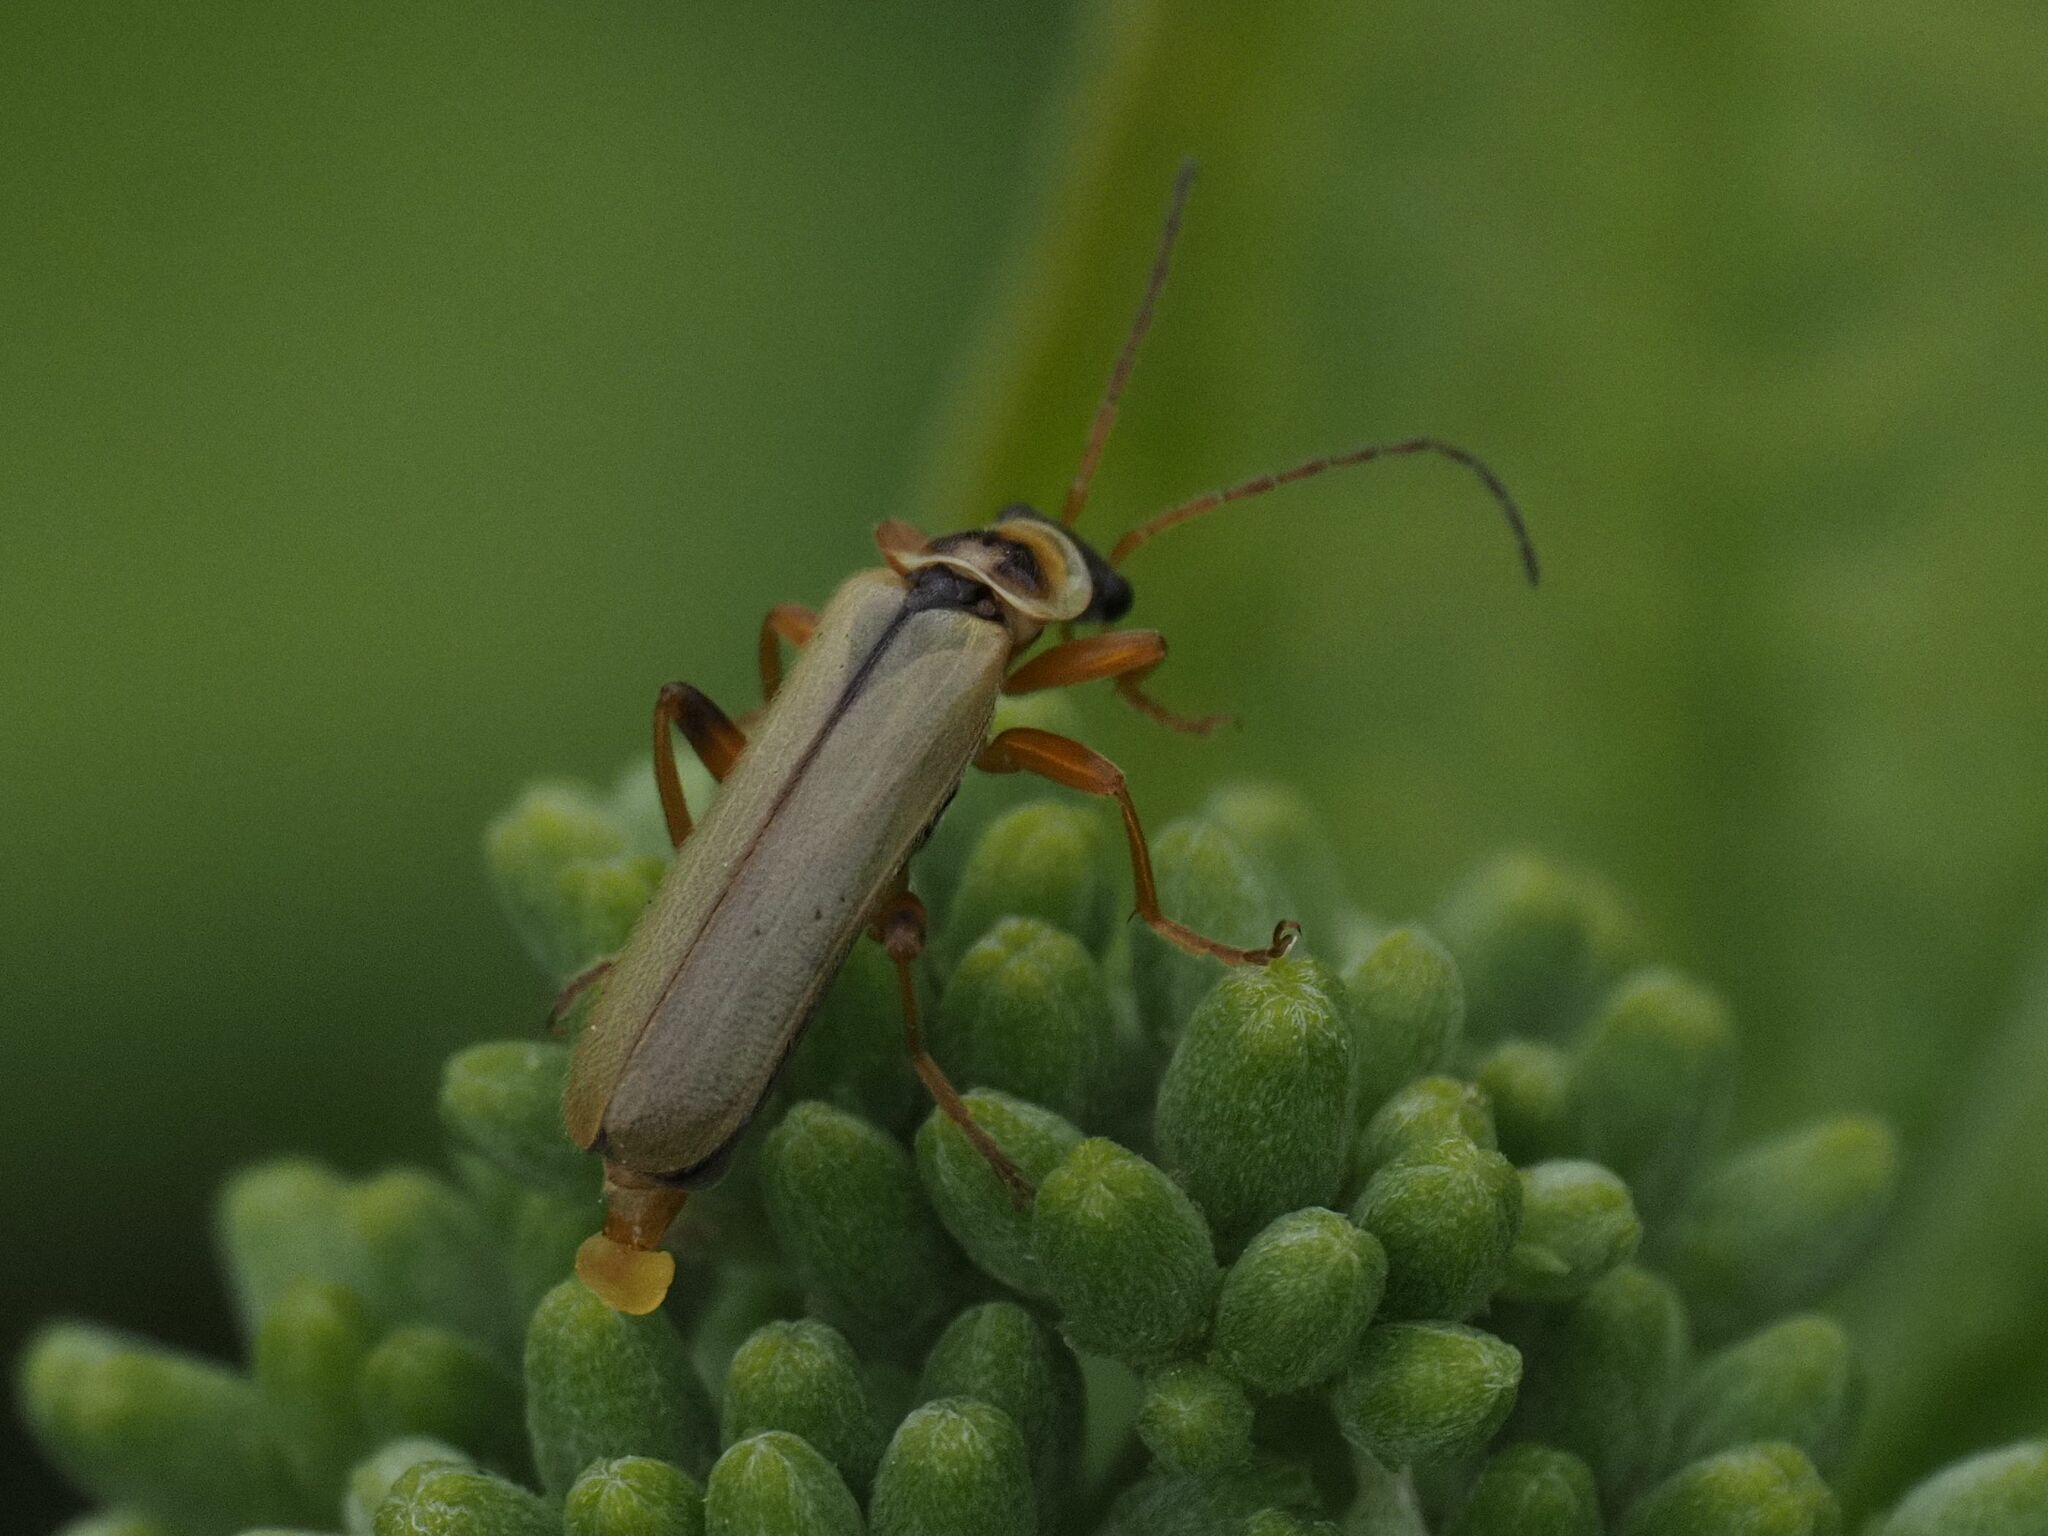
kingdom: Animalia
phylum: Arthropoda
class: Insecta
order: Coleoptera
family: Cantharidae
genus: Metacantharis
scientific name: Metacantharis clypeata
